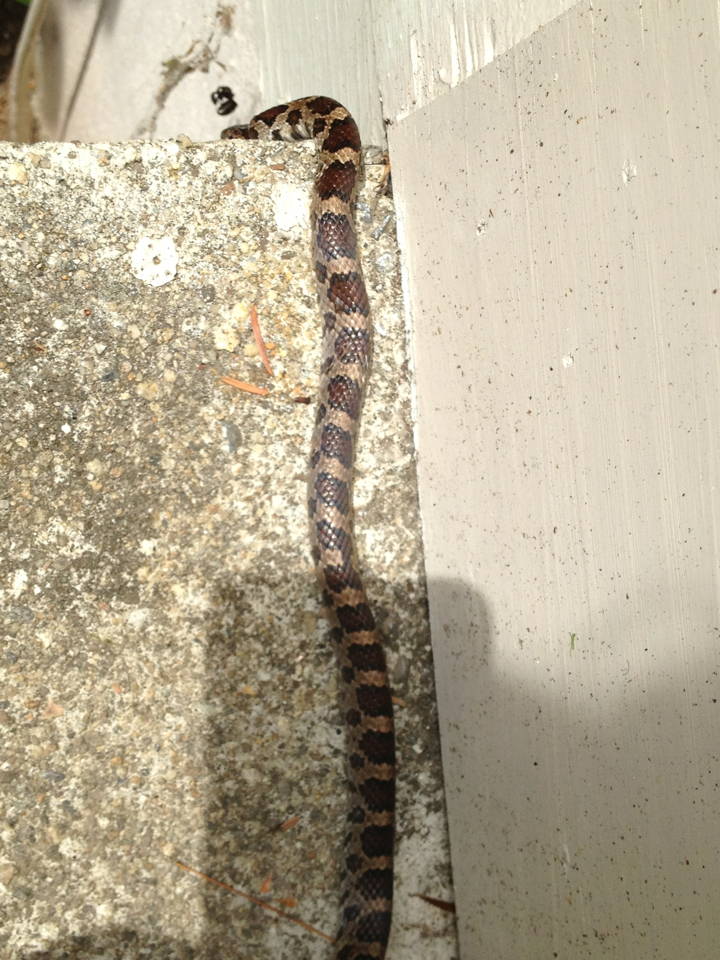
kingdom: Animalia
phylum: Chordata
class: Squamata
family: Colubridae
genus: Lampropeltis
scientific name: Lampropeltis triangulum
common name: Eastern milksnake
